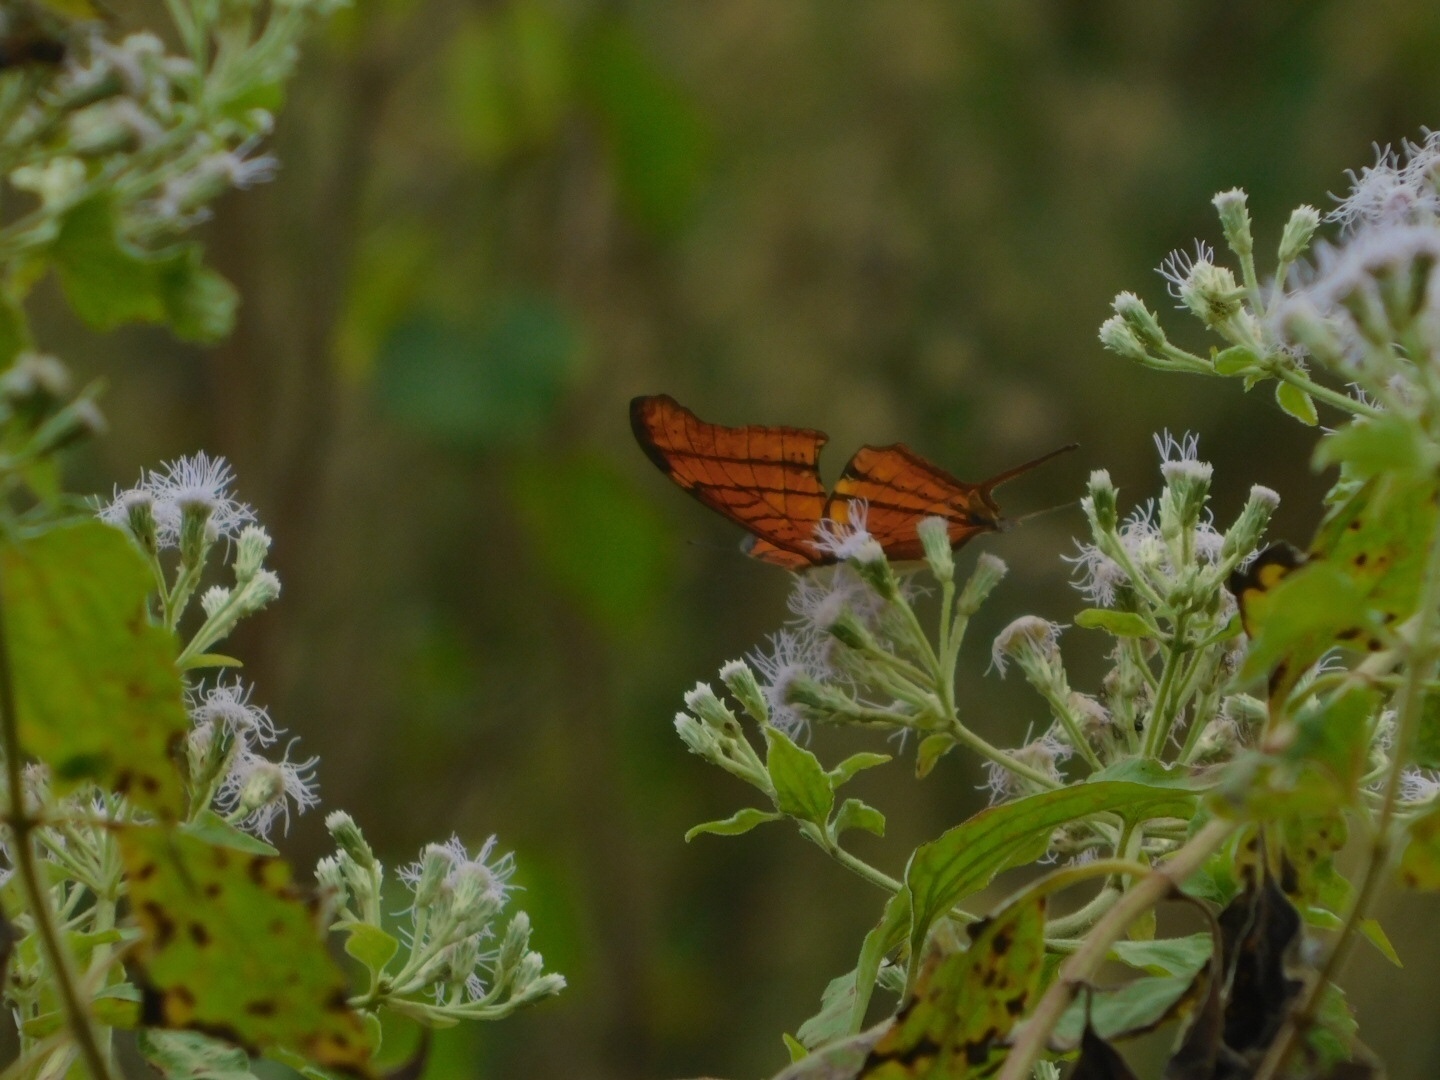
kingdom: Animalia
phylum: Arthropoda
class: Insecta
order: Lepidoptera
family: Nymphalidae
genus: Marpesia
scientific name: Marpesia petreus
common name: Red dagger wing
